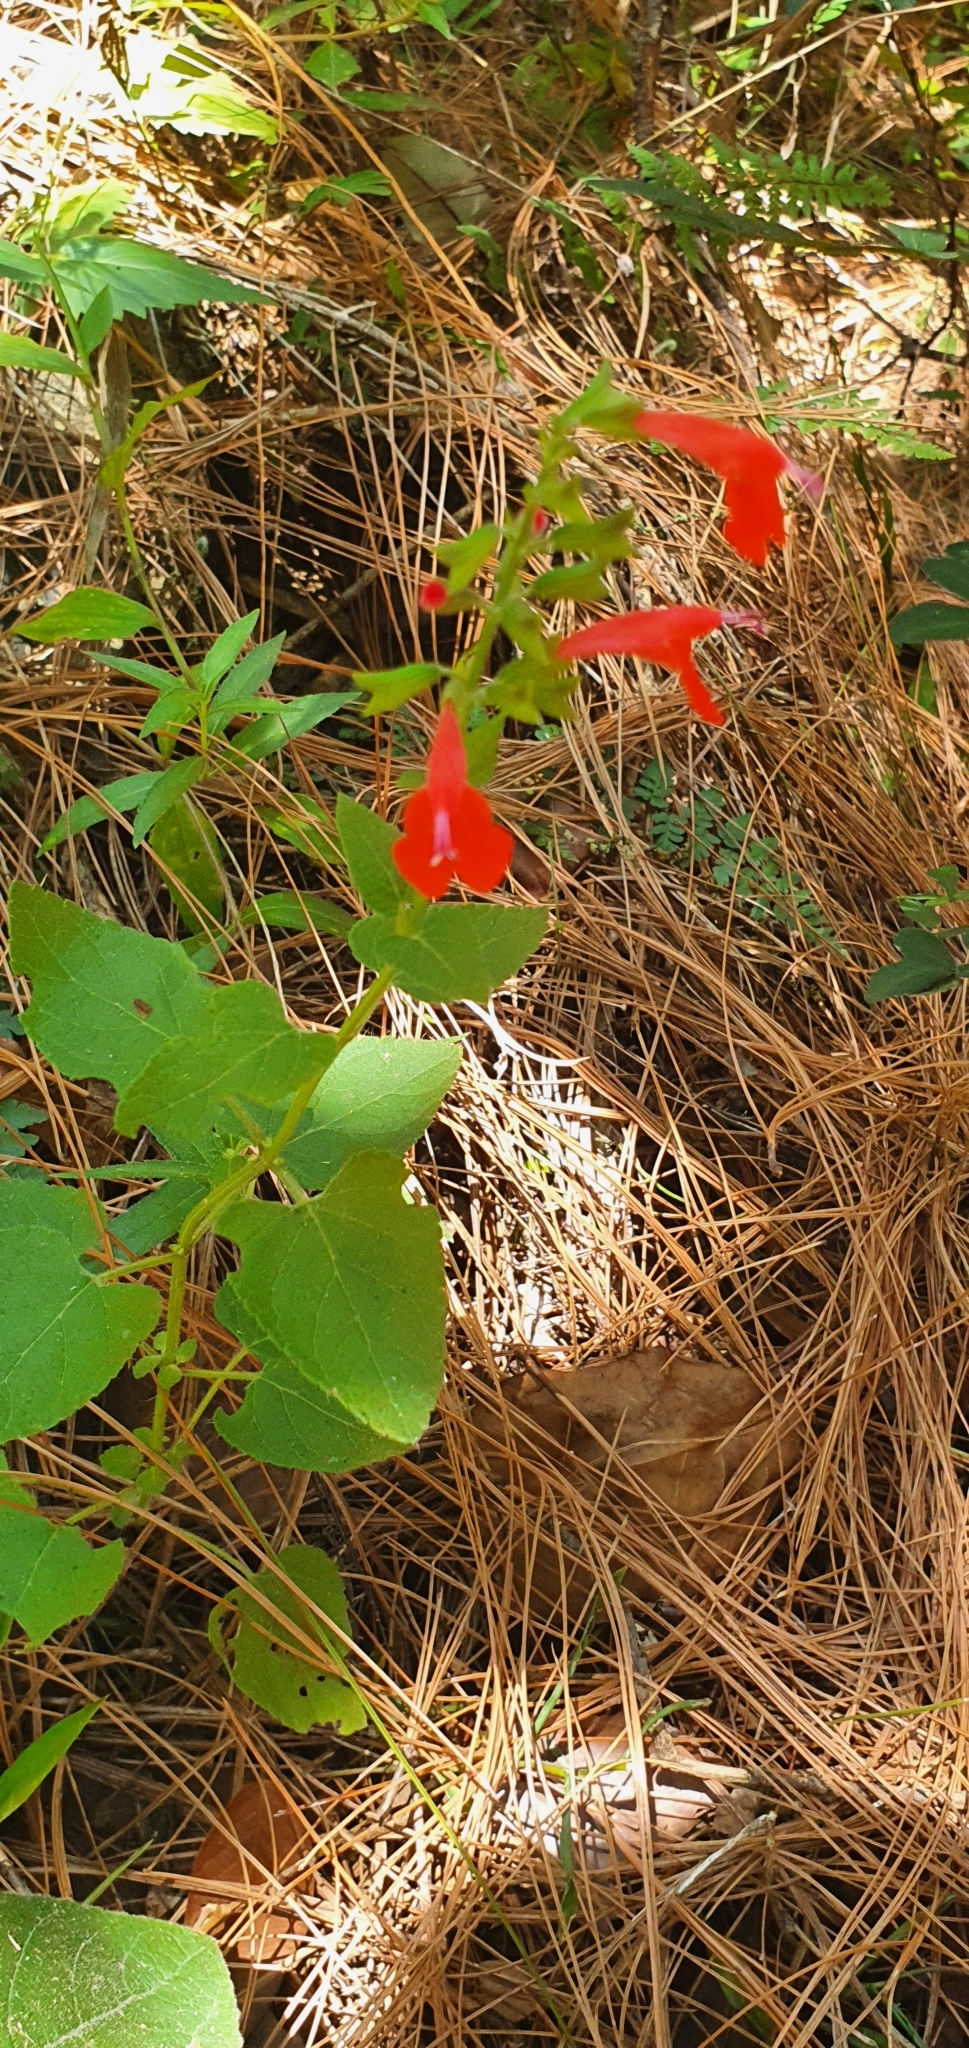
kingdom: Plantae
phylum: Tracheophyta
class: Magnoliopsida
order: Lamiales
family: Lamiaceae
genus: Salvia
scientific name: Salvia coccinea
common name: Blood sage
